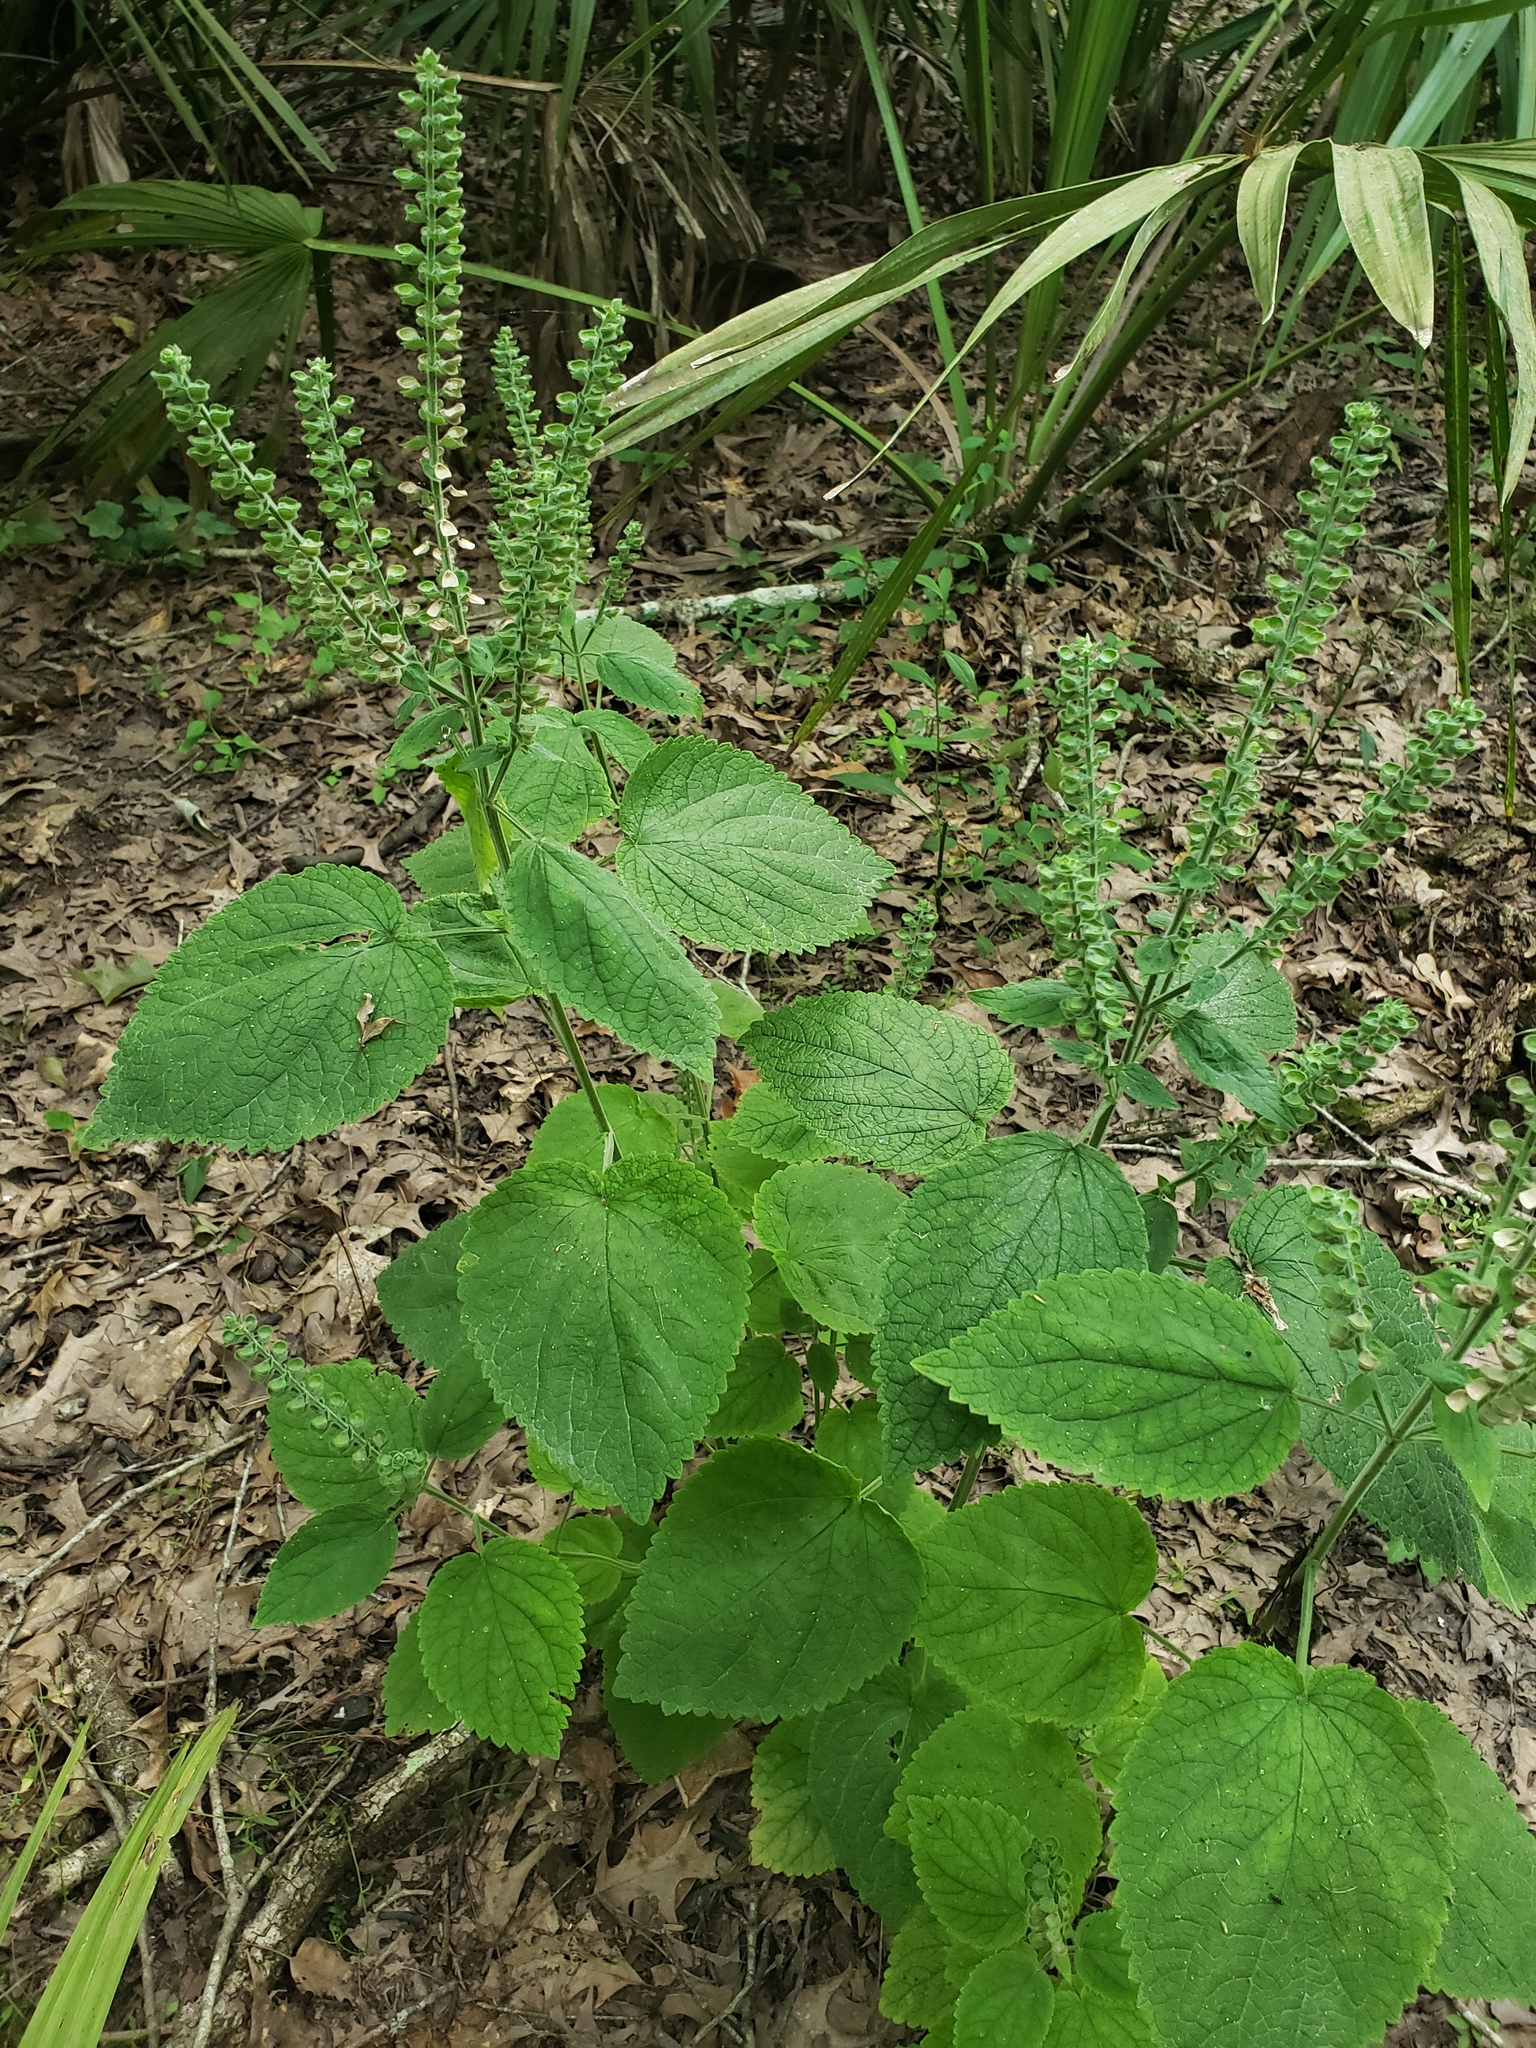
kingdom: Plantae
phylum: Tracheophyta
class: Magnoliopsida
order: Lamiales
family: Lamiaceae
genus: Scutellaria
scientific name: Scutellaria ovata
